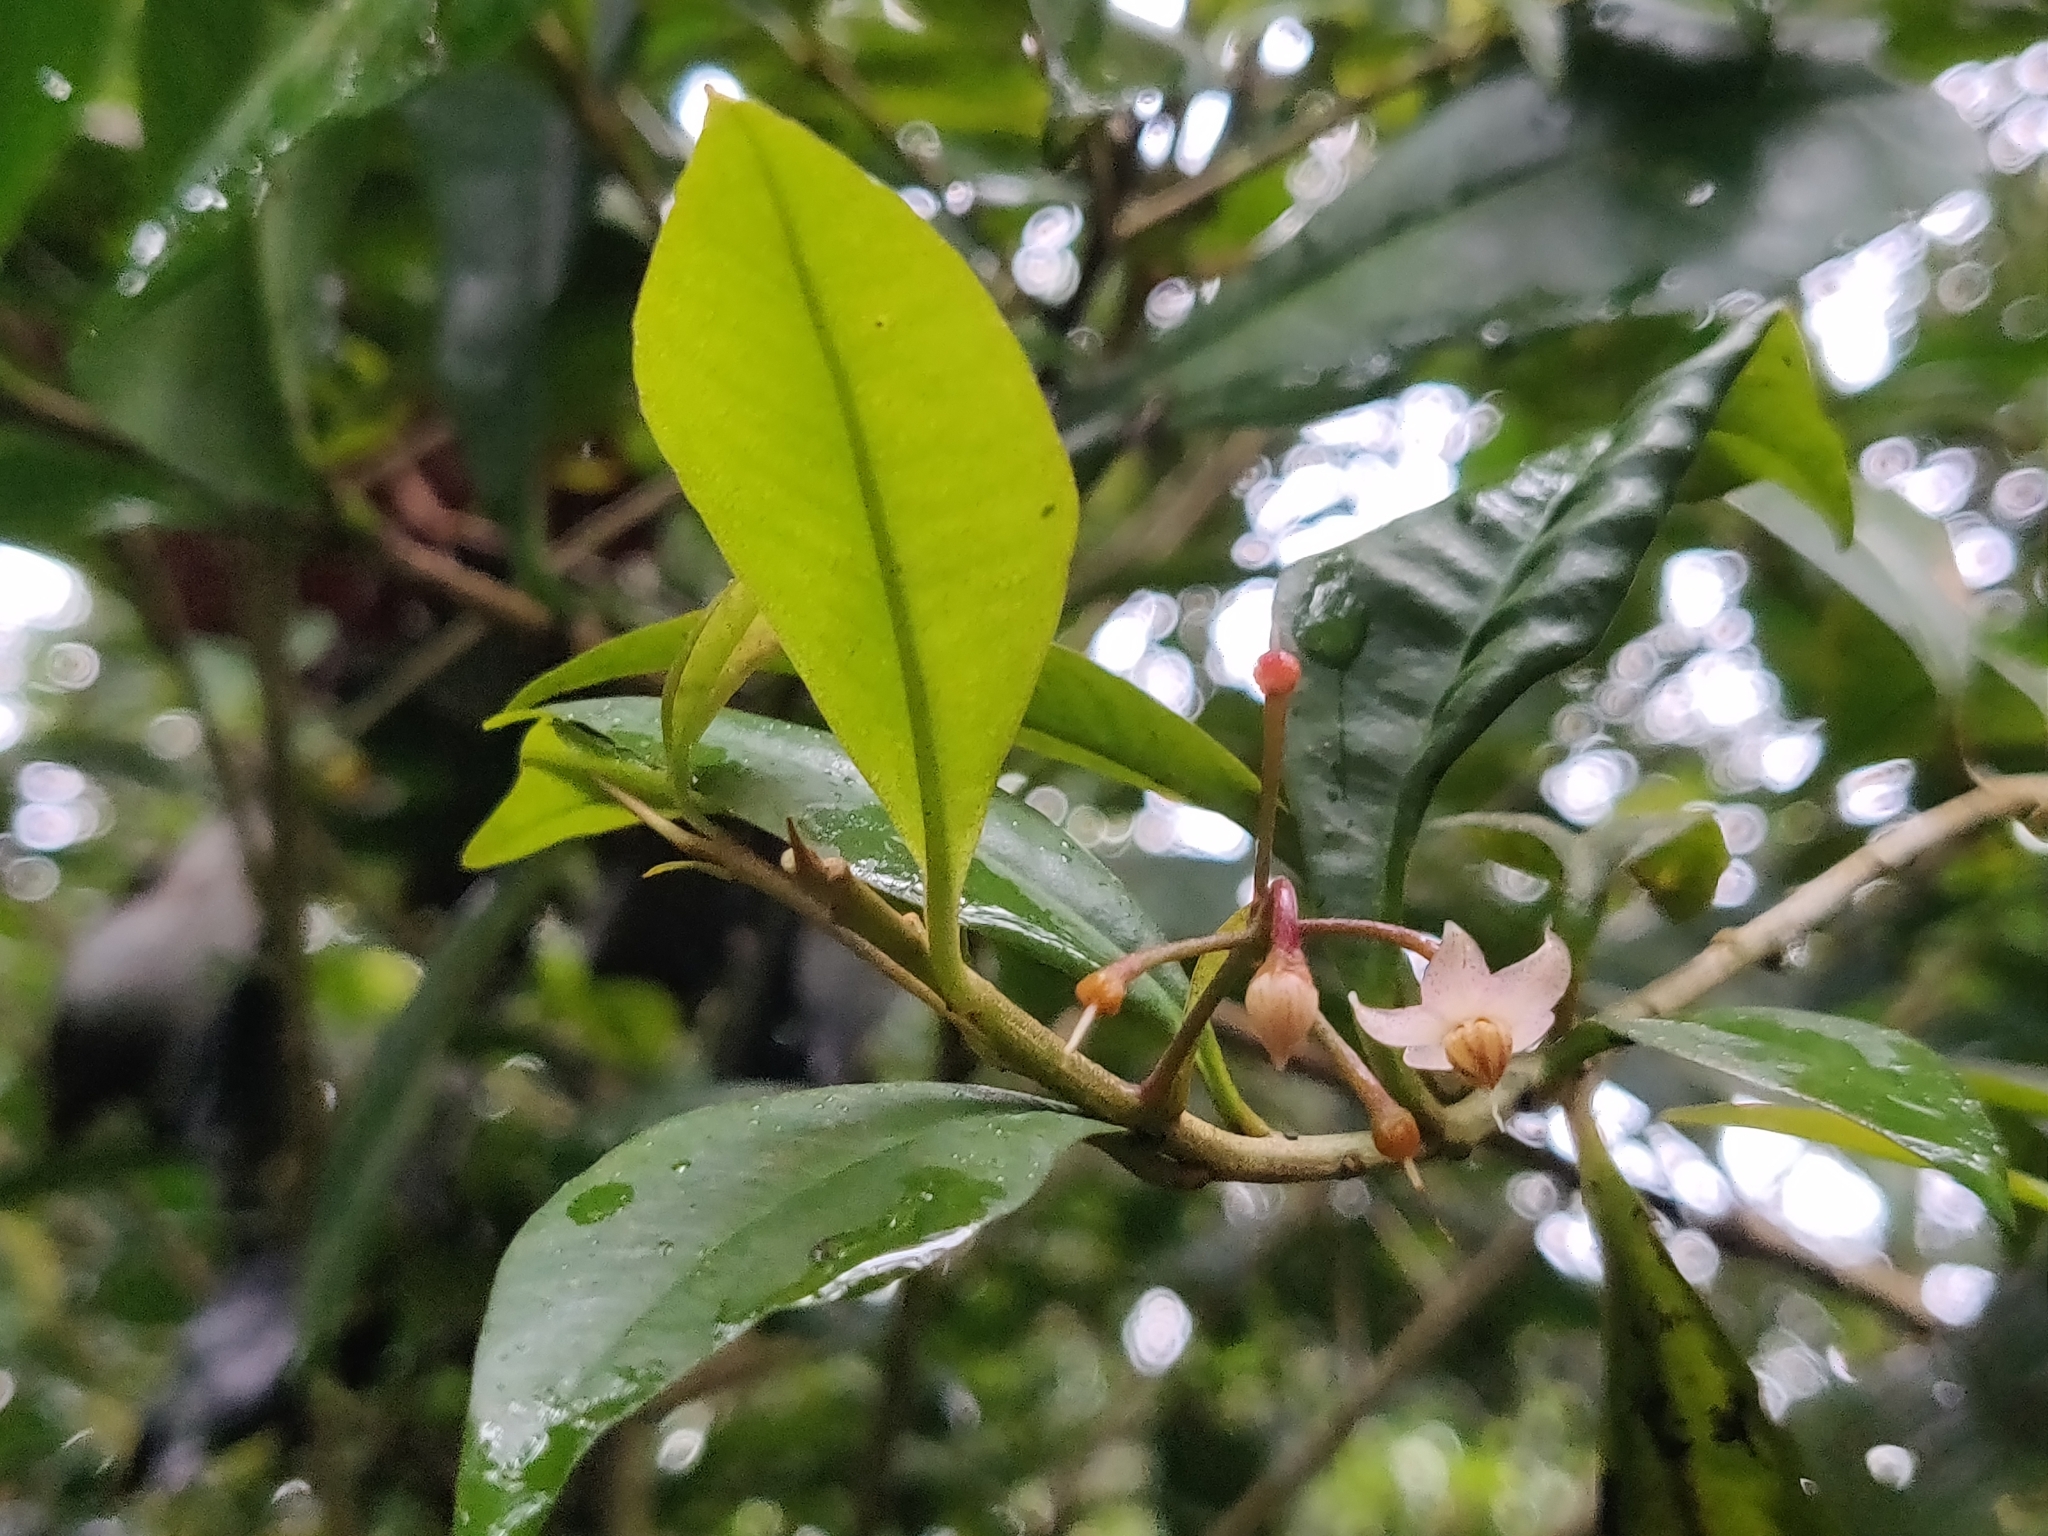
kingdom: Plantae
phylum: Tracheophyta
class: Magnoliopsida
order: Ericales
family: Primulaceae
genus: Ardisia
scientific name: Ardisia pauciflora
